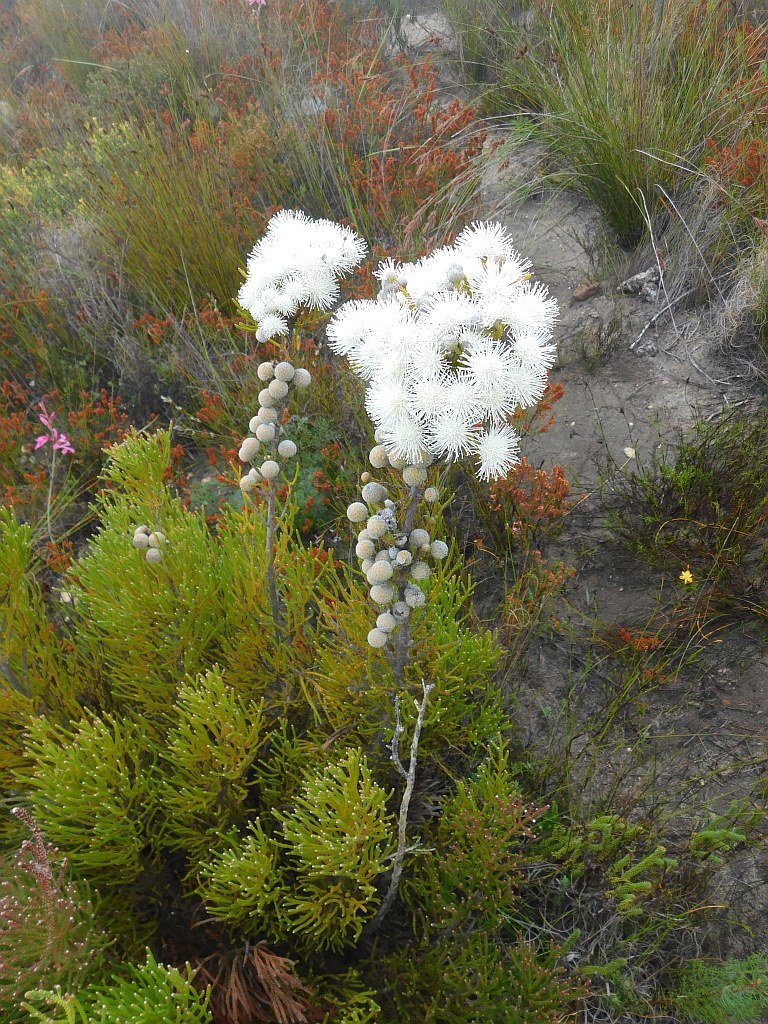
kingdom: Plantae
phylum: Tracheophyta
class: Magnoliopsida
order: Bruniales
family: Bruniaceae
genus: Brunia
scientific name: Brunia noduliflora
